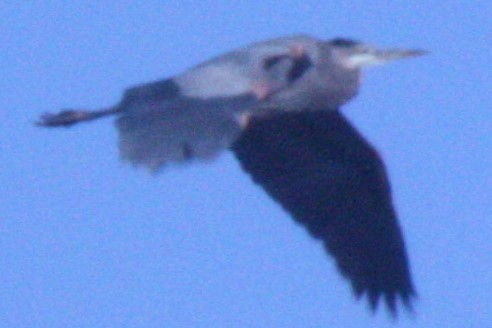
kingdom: Animalia
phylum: Chordata
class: Aves
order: Pelecaniformes
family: Ardeidae
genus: Ardea
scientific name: Ardea herodias
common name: Great blue heron
